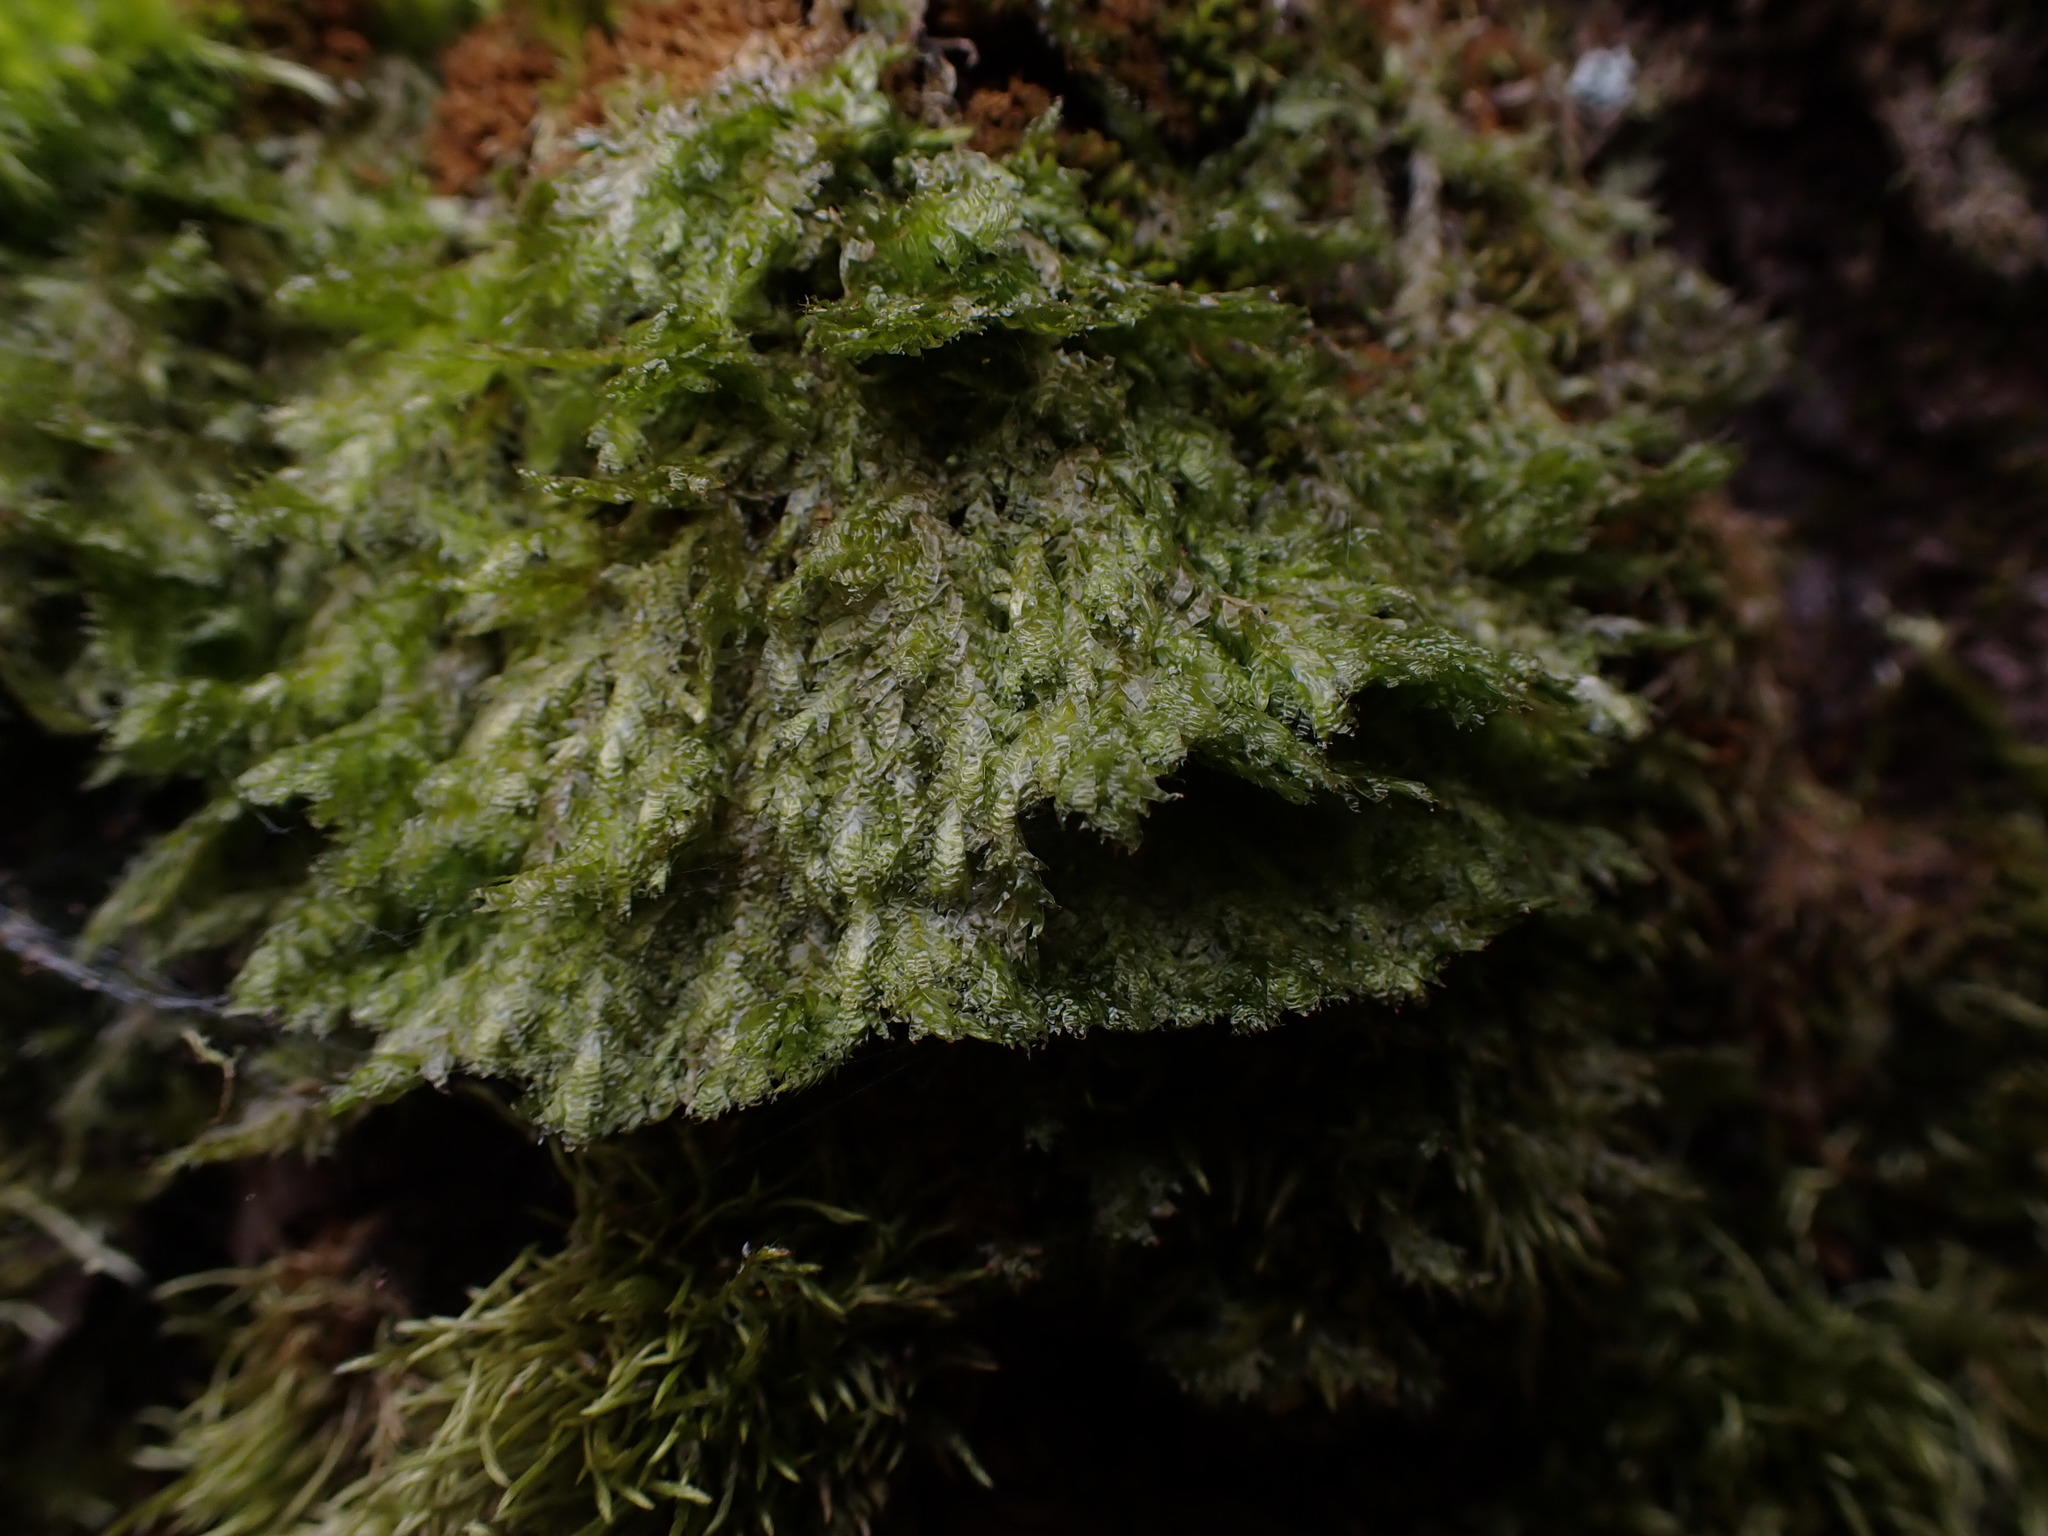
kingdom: Plantae
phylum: Bryophyta
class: Bryopsida
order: Hypnales
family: Neckeraceae
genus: Neckera
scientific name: Neckera douglasii
